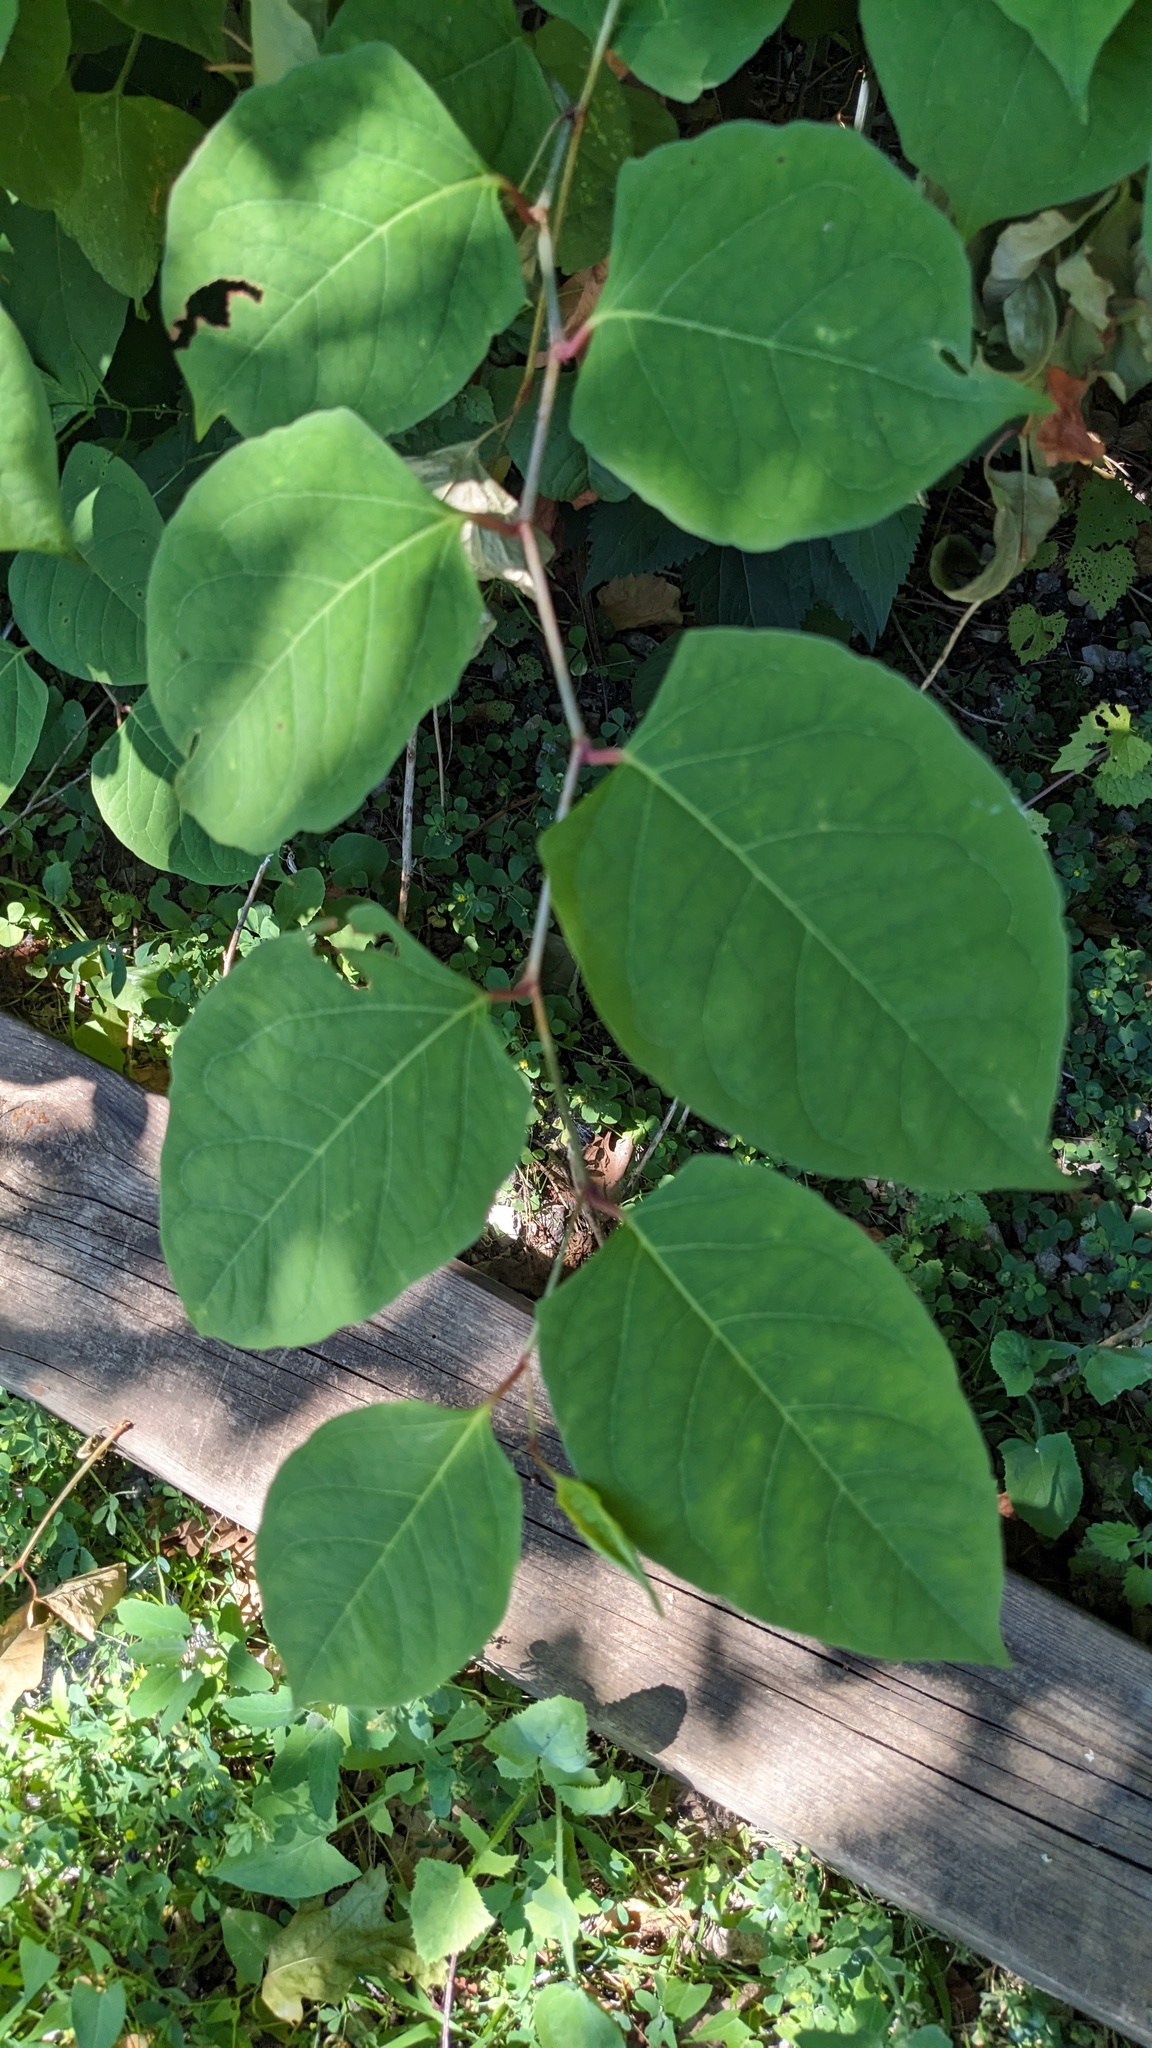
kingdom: Plantae
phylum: Tracheophyta
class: Magnoliopsida
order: Caryophyllales
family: Polygonaceae
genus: Reynoutria
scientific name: Reynoutria japonica
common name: Japanese knotweed
